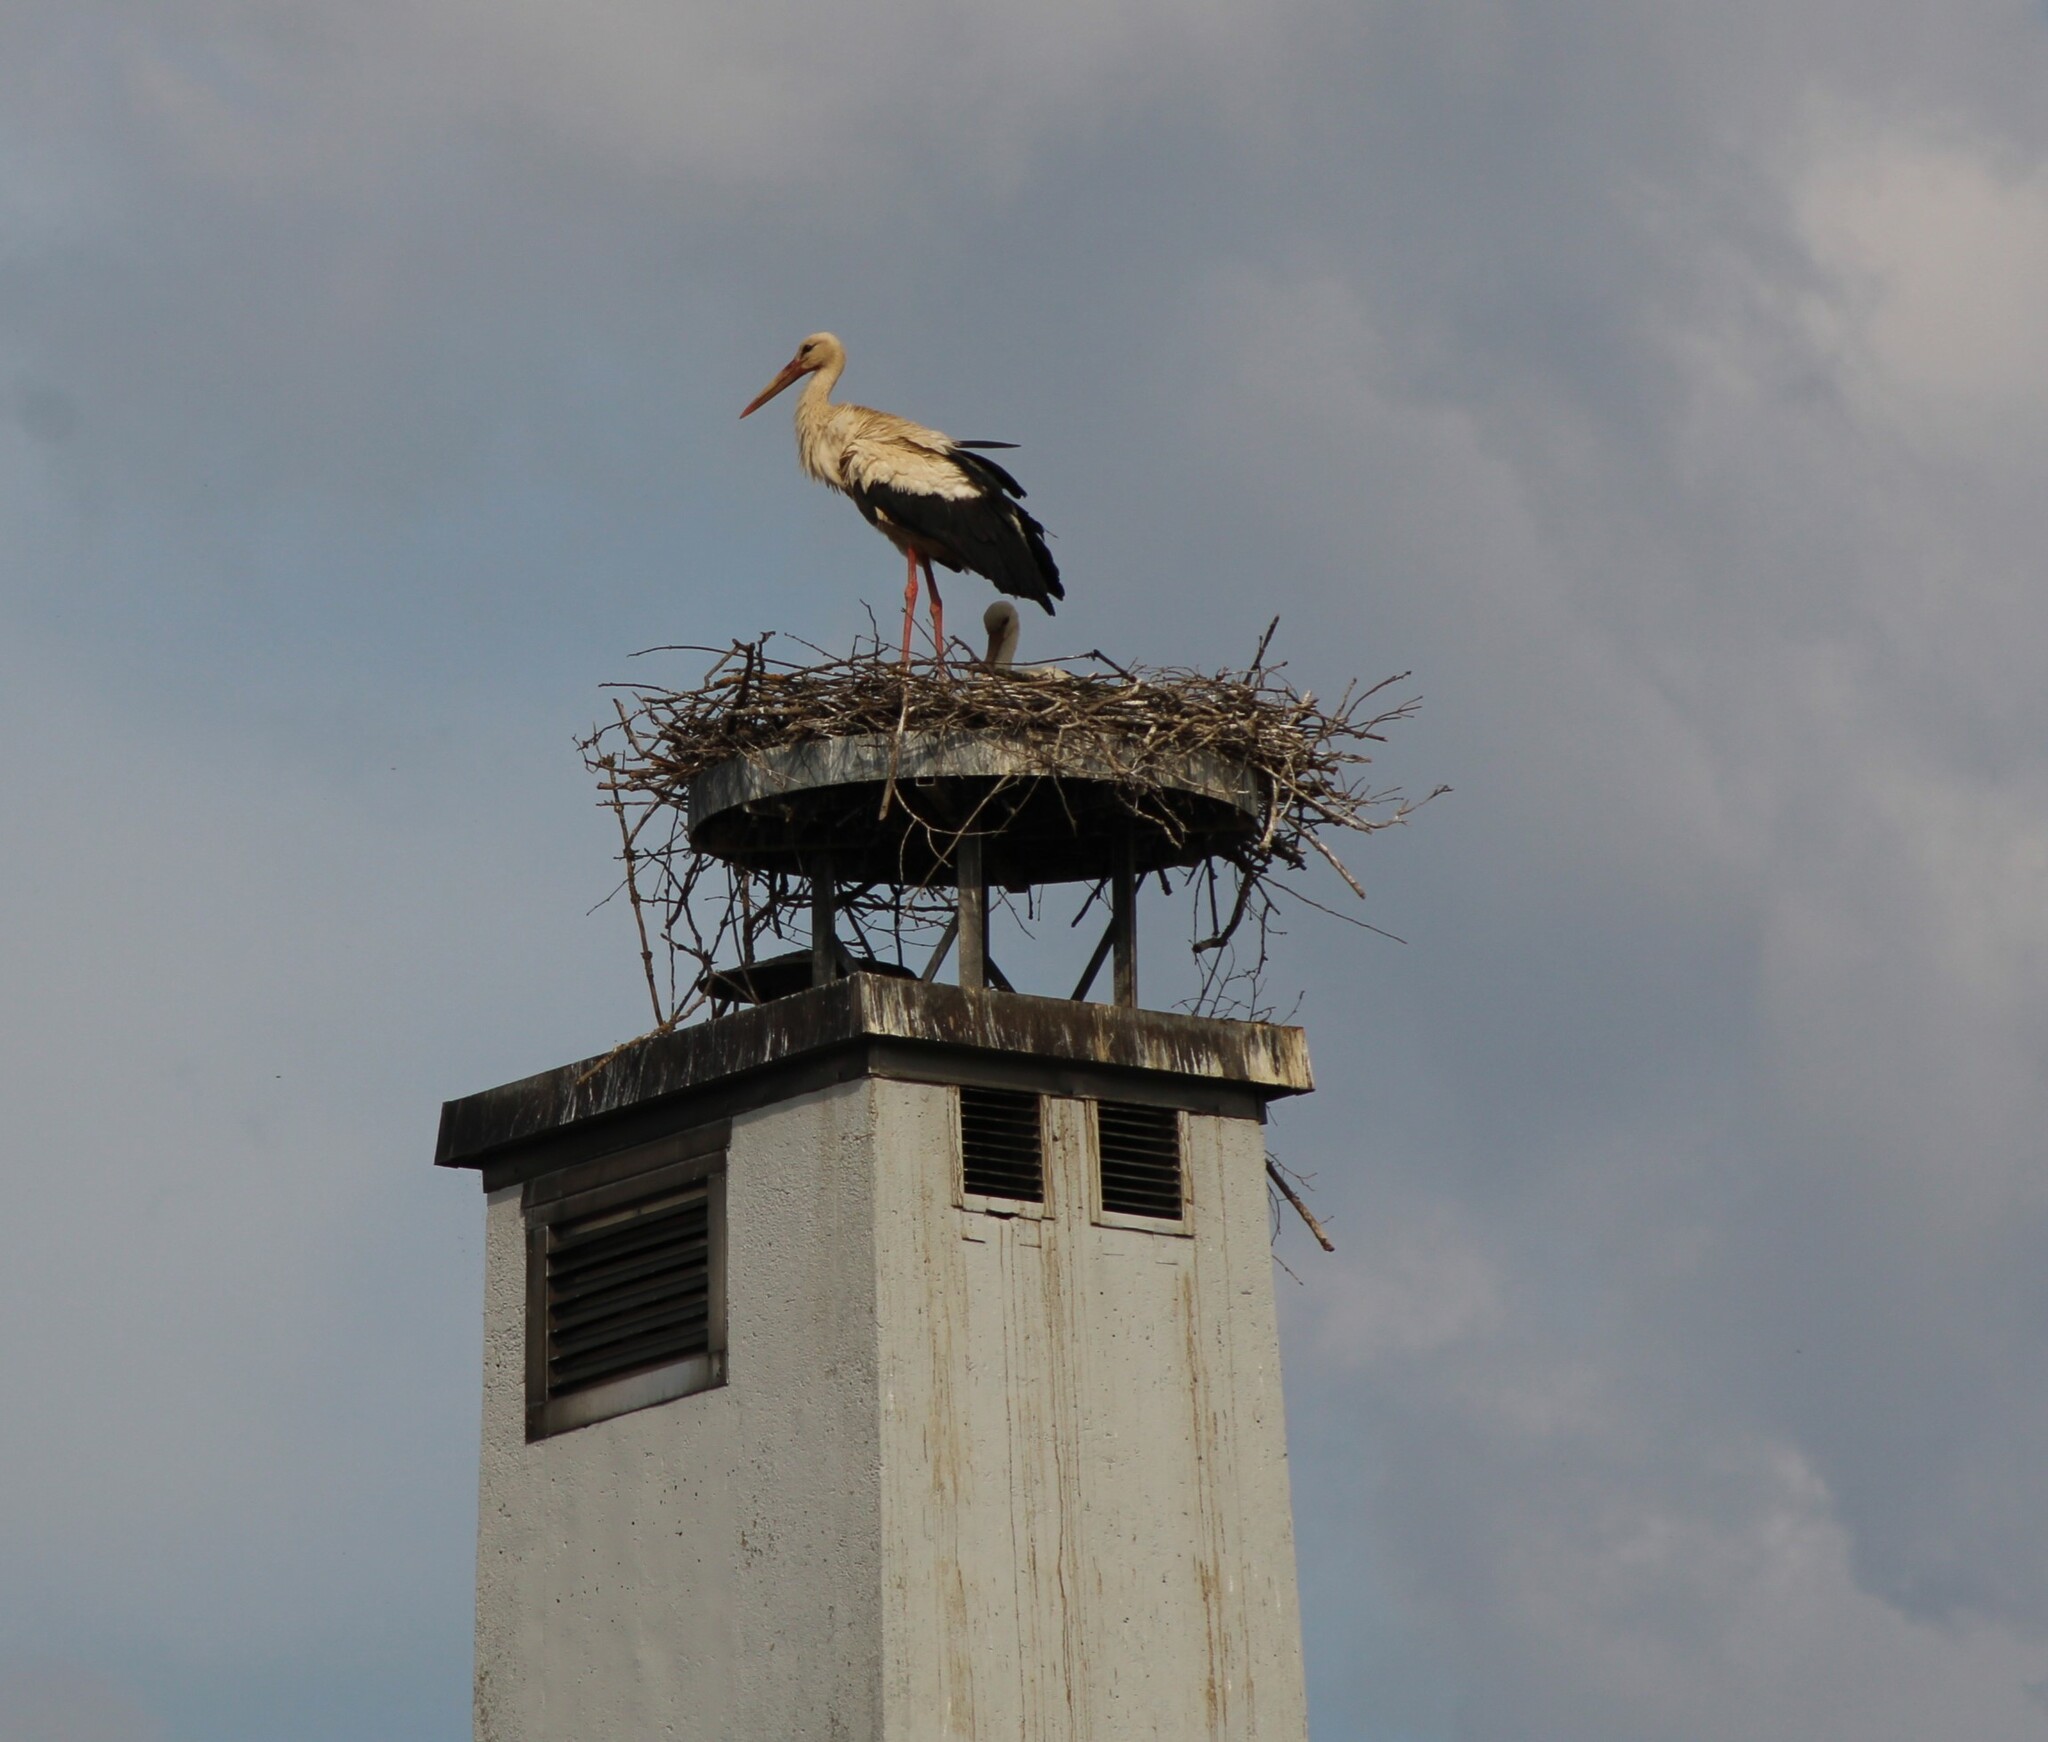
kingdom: Animalia
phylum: Chordata
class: Aves
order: Ciconiiformes
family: Ciconiidae
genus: Ciconia
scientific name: Ciconia ciconia
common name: White stork
